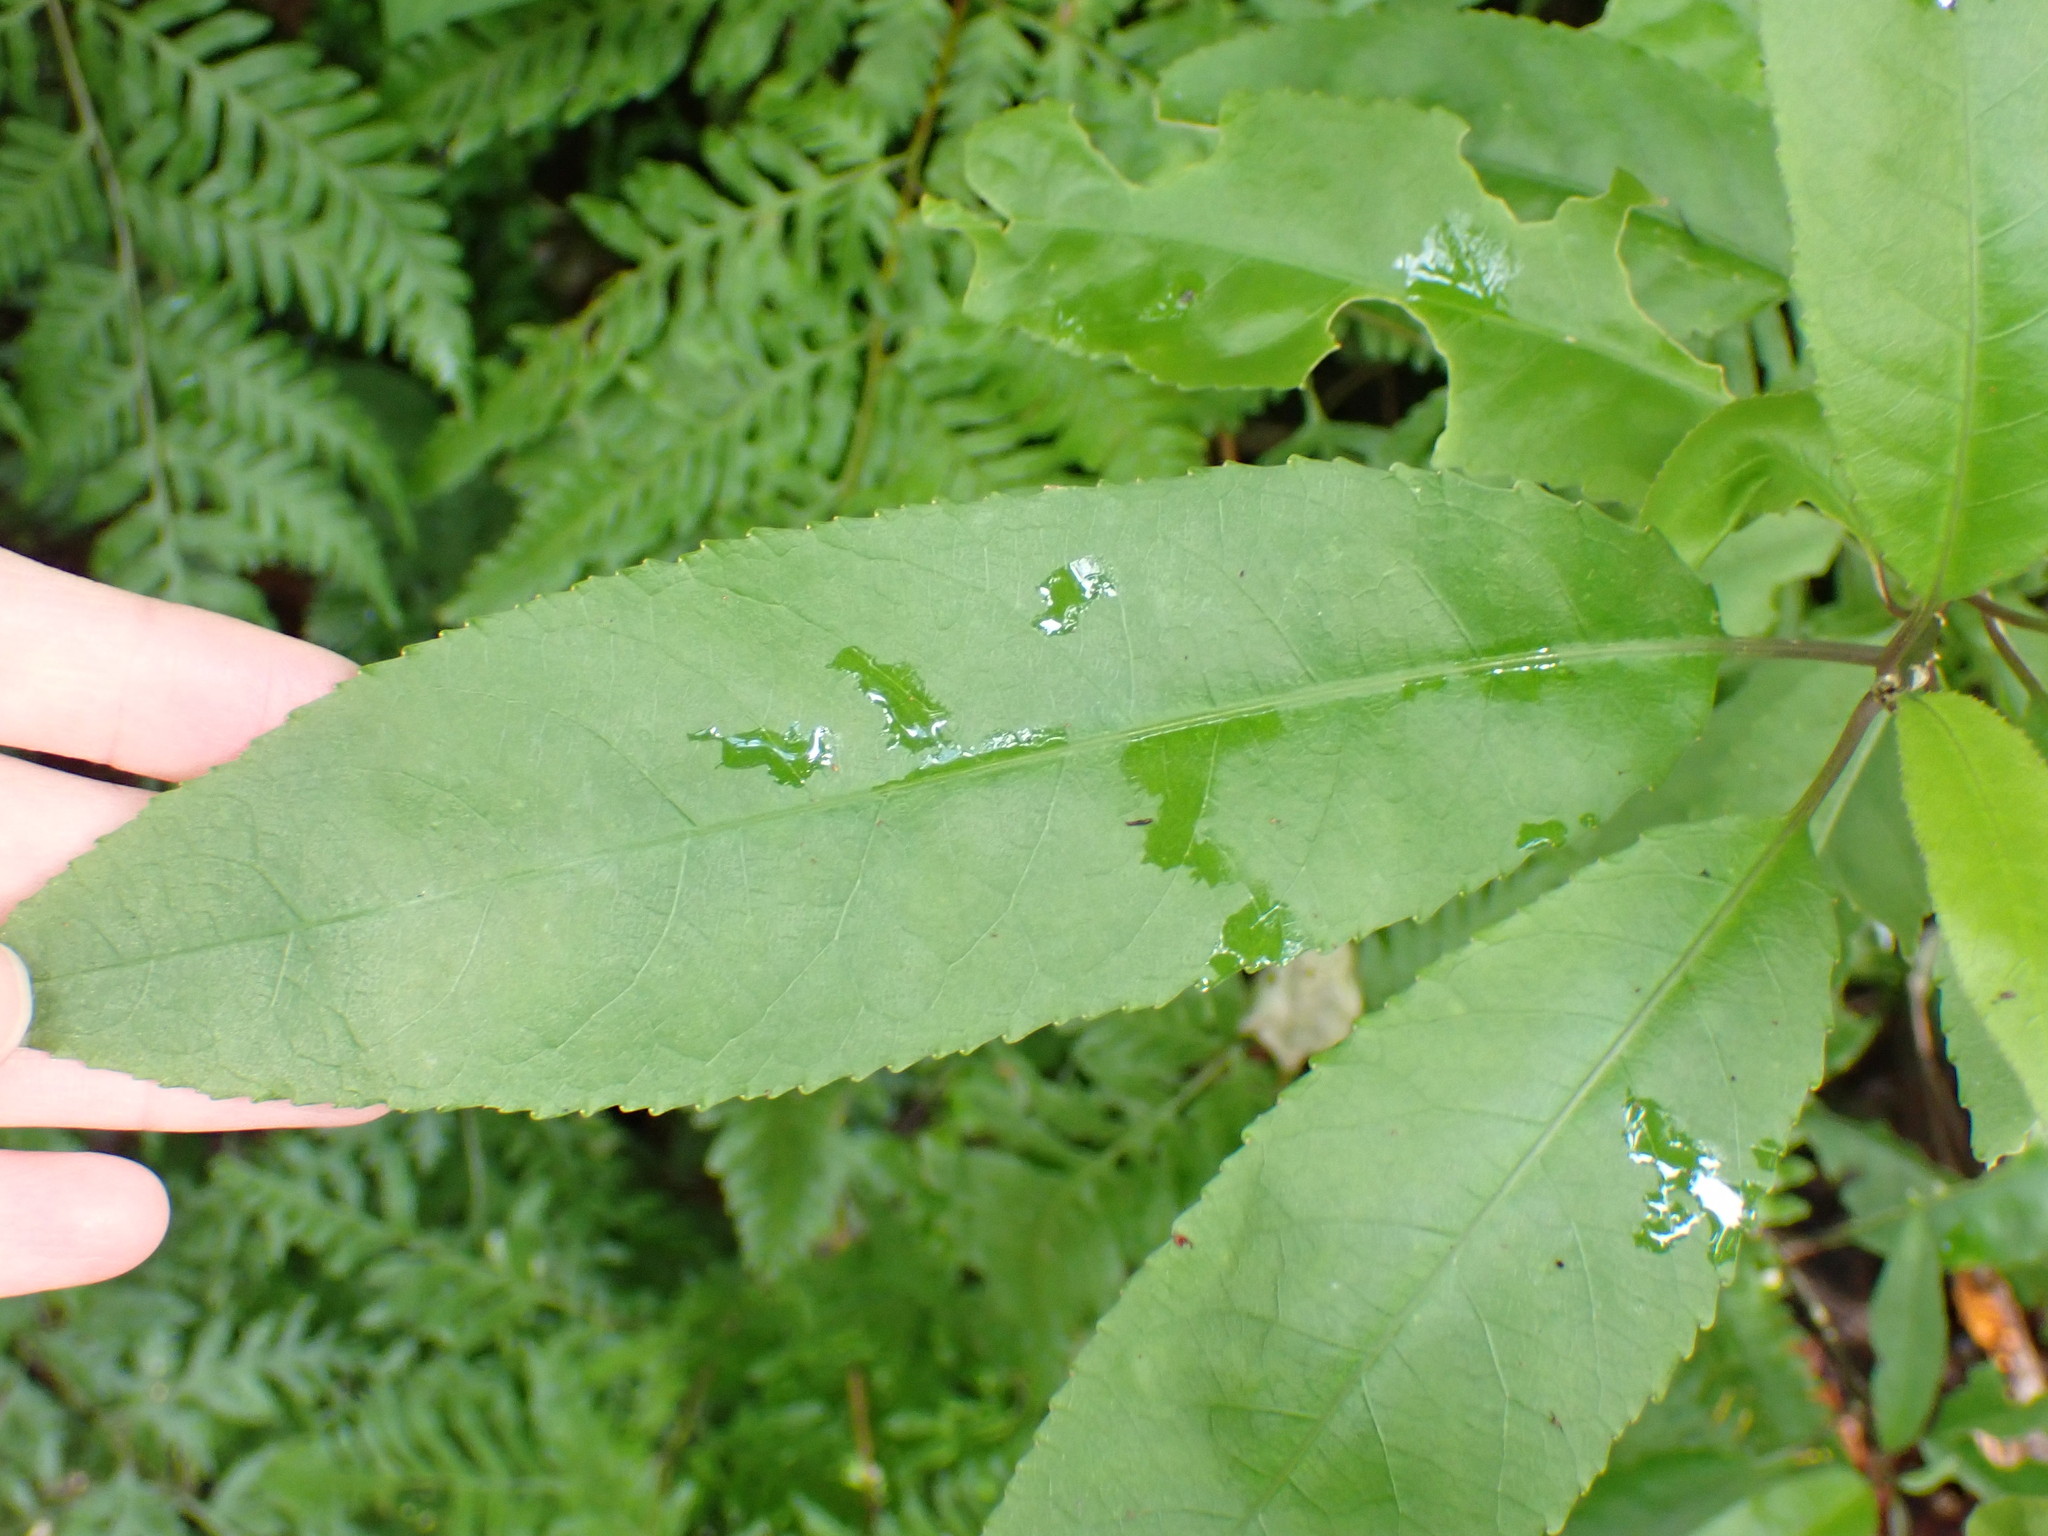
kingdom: Plantae
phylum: Tracheophyta
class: Magnoliopsida
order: Malpighiales
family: Violaceae
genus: Melicytus
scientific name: Melicytus ramiflorus
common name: Mahoe
